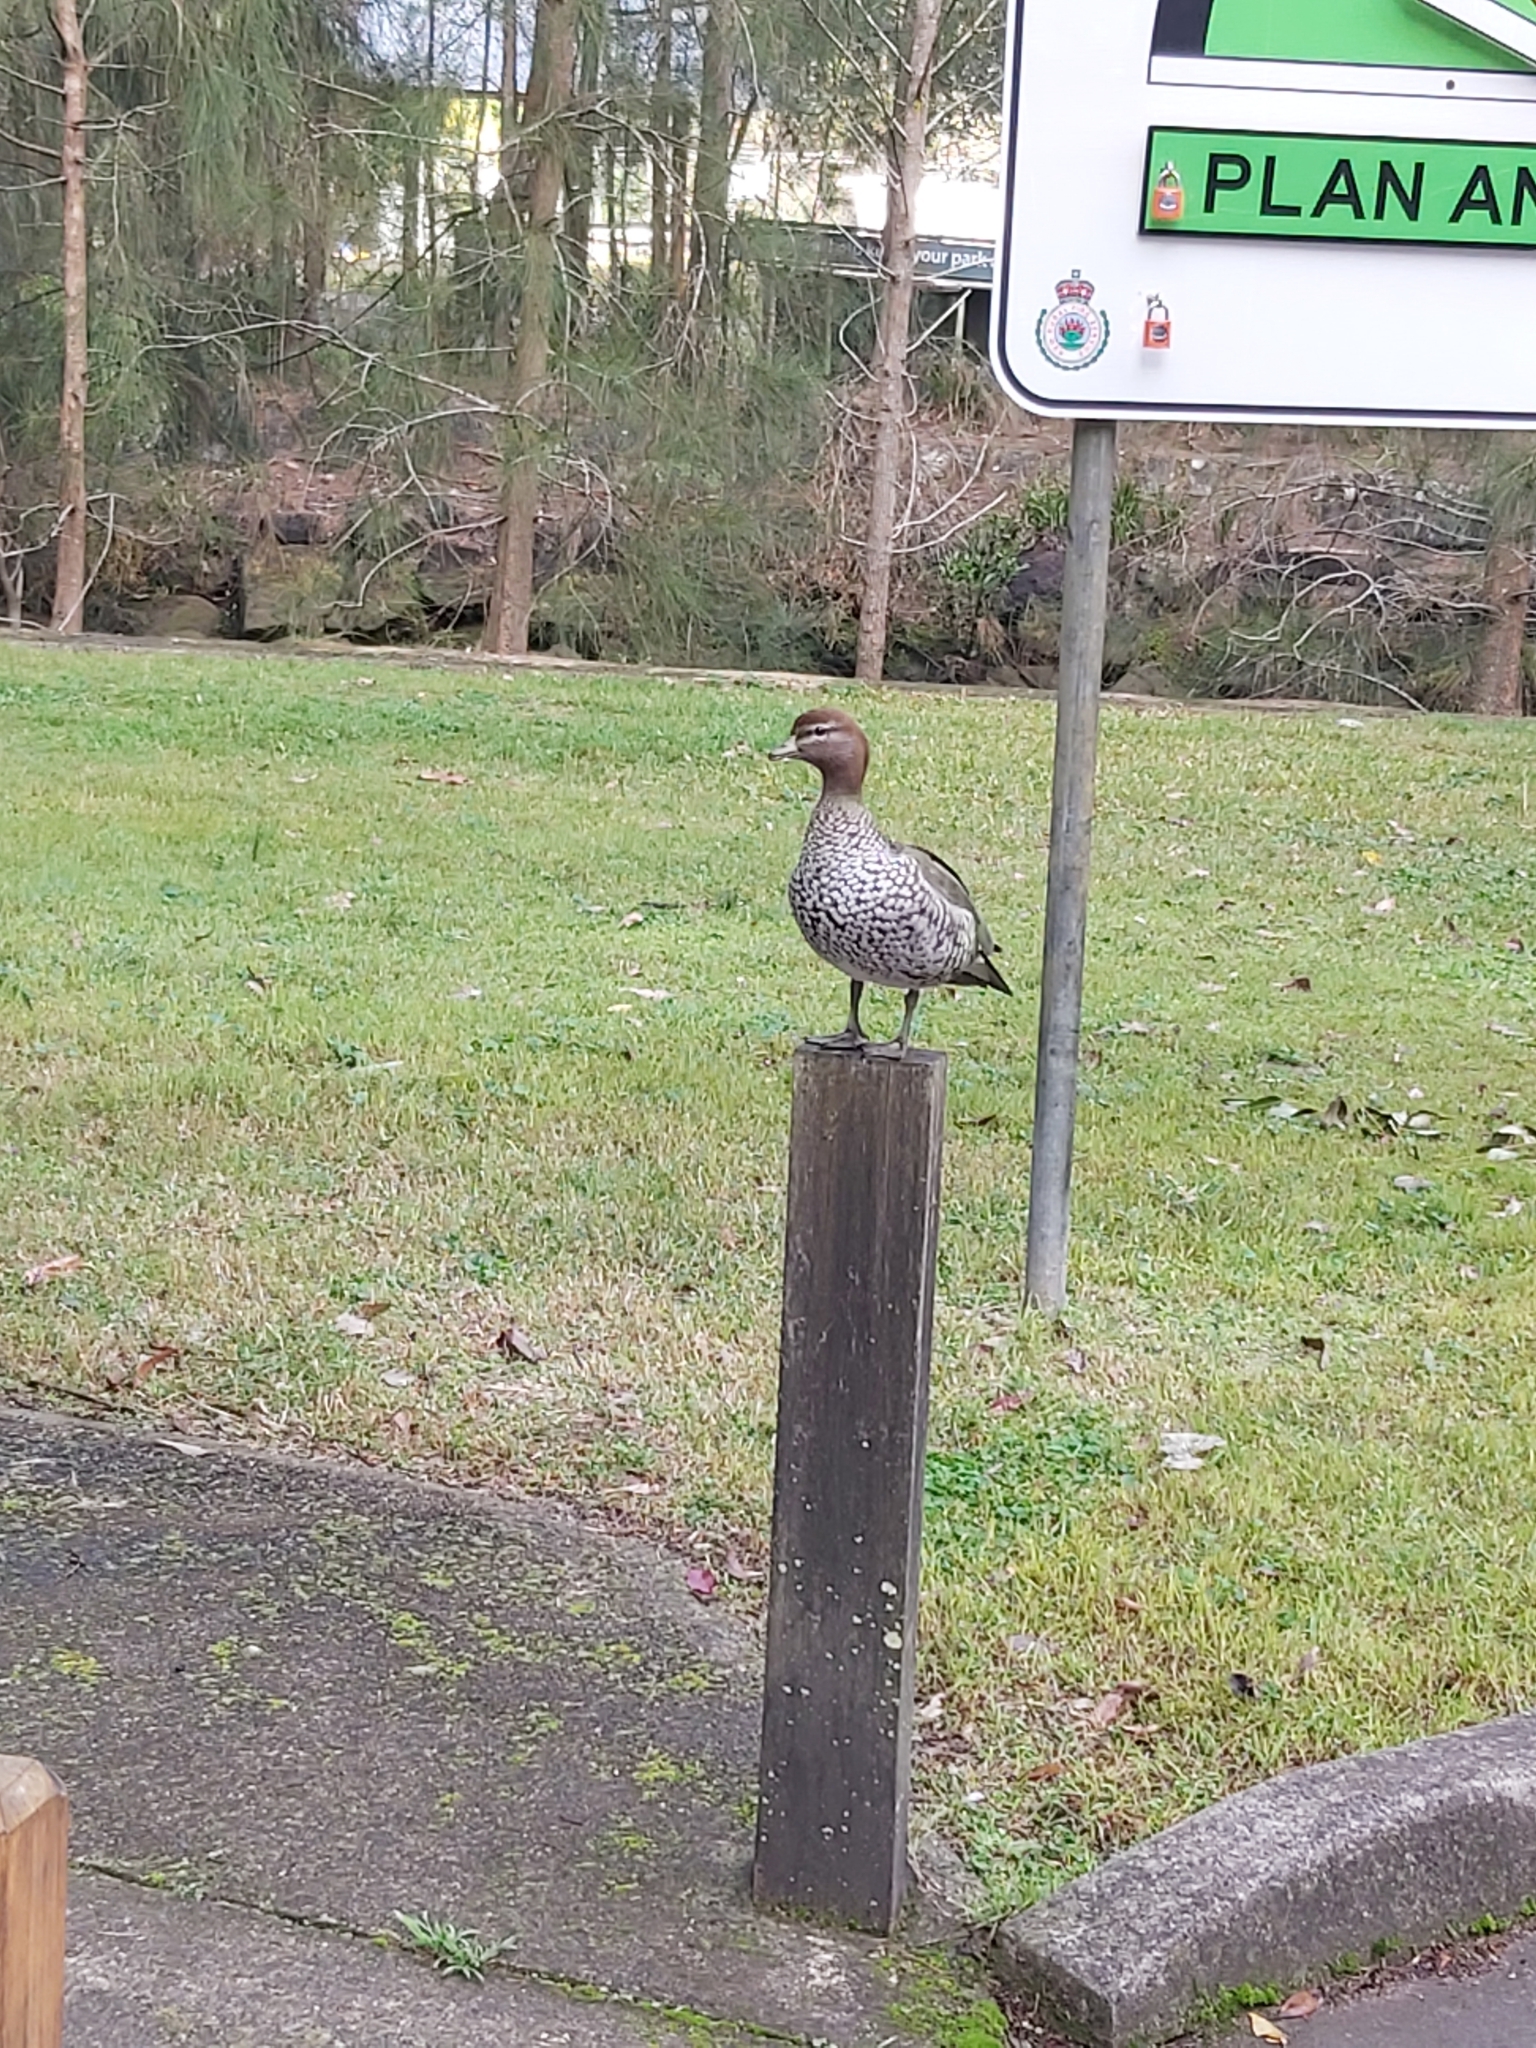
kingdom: Animalia
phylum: Chordata
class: Aves
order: Anseriformes
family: Anatidae
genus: Chenonetta
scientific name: Chenonetta jubata
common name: Maned duck
